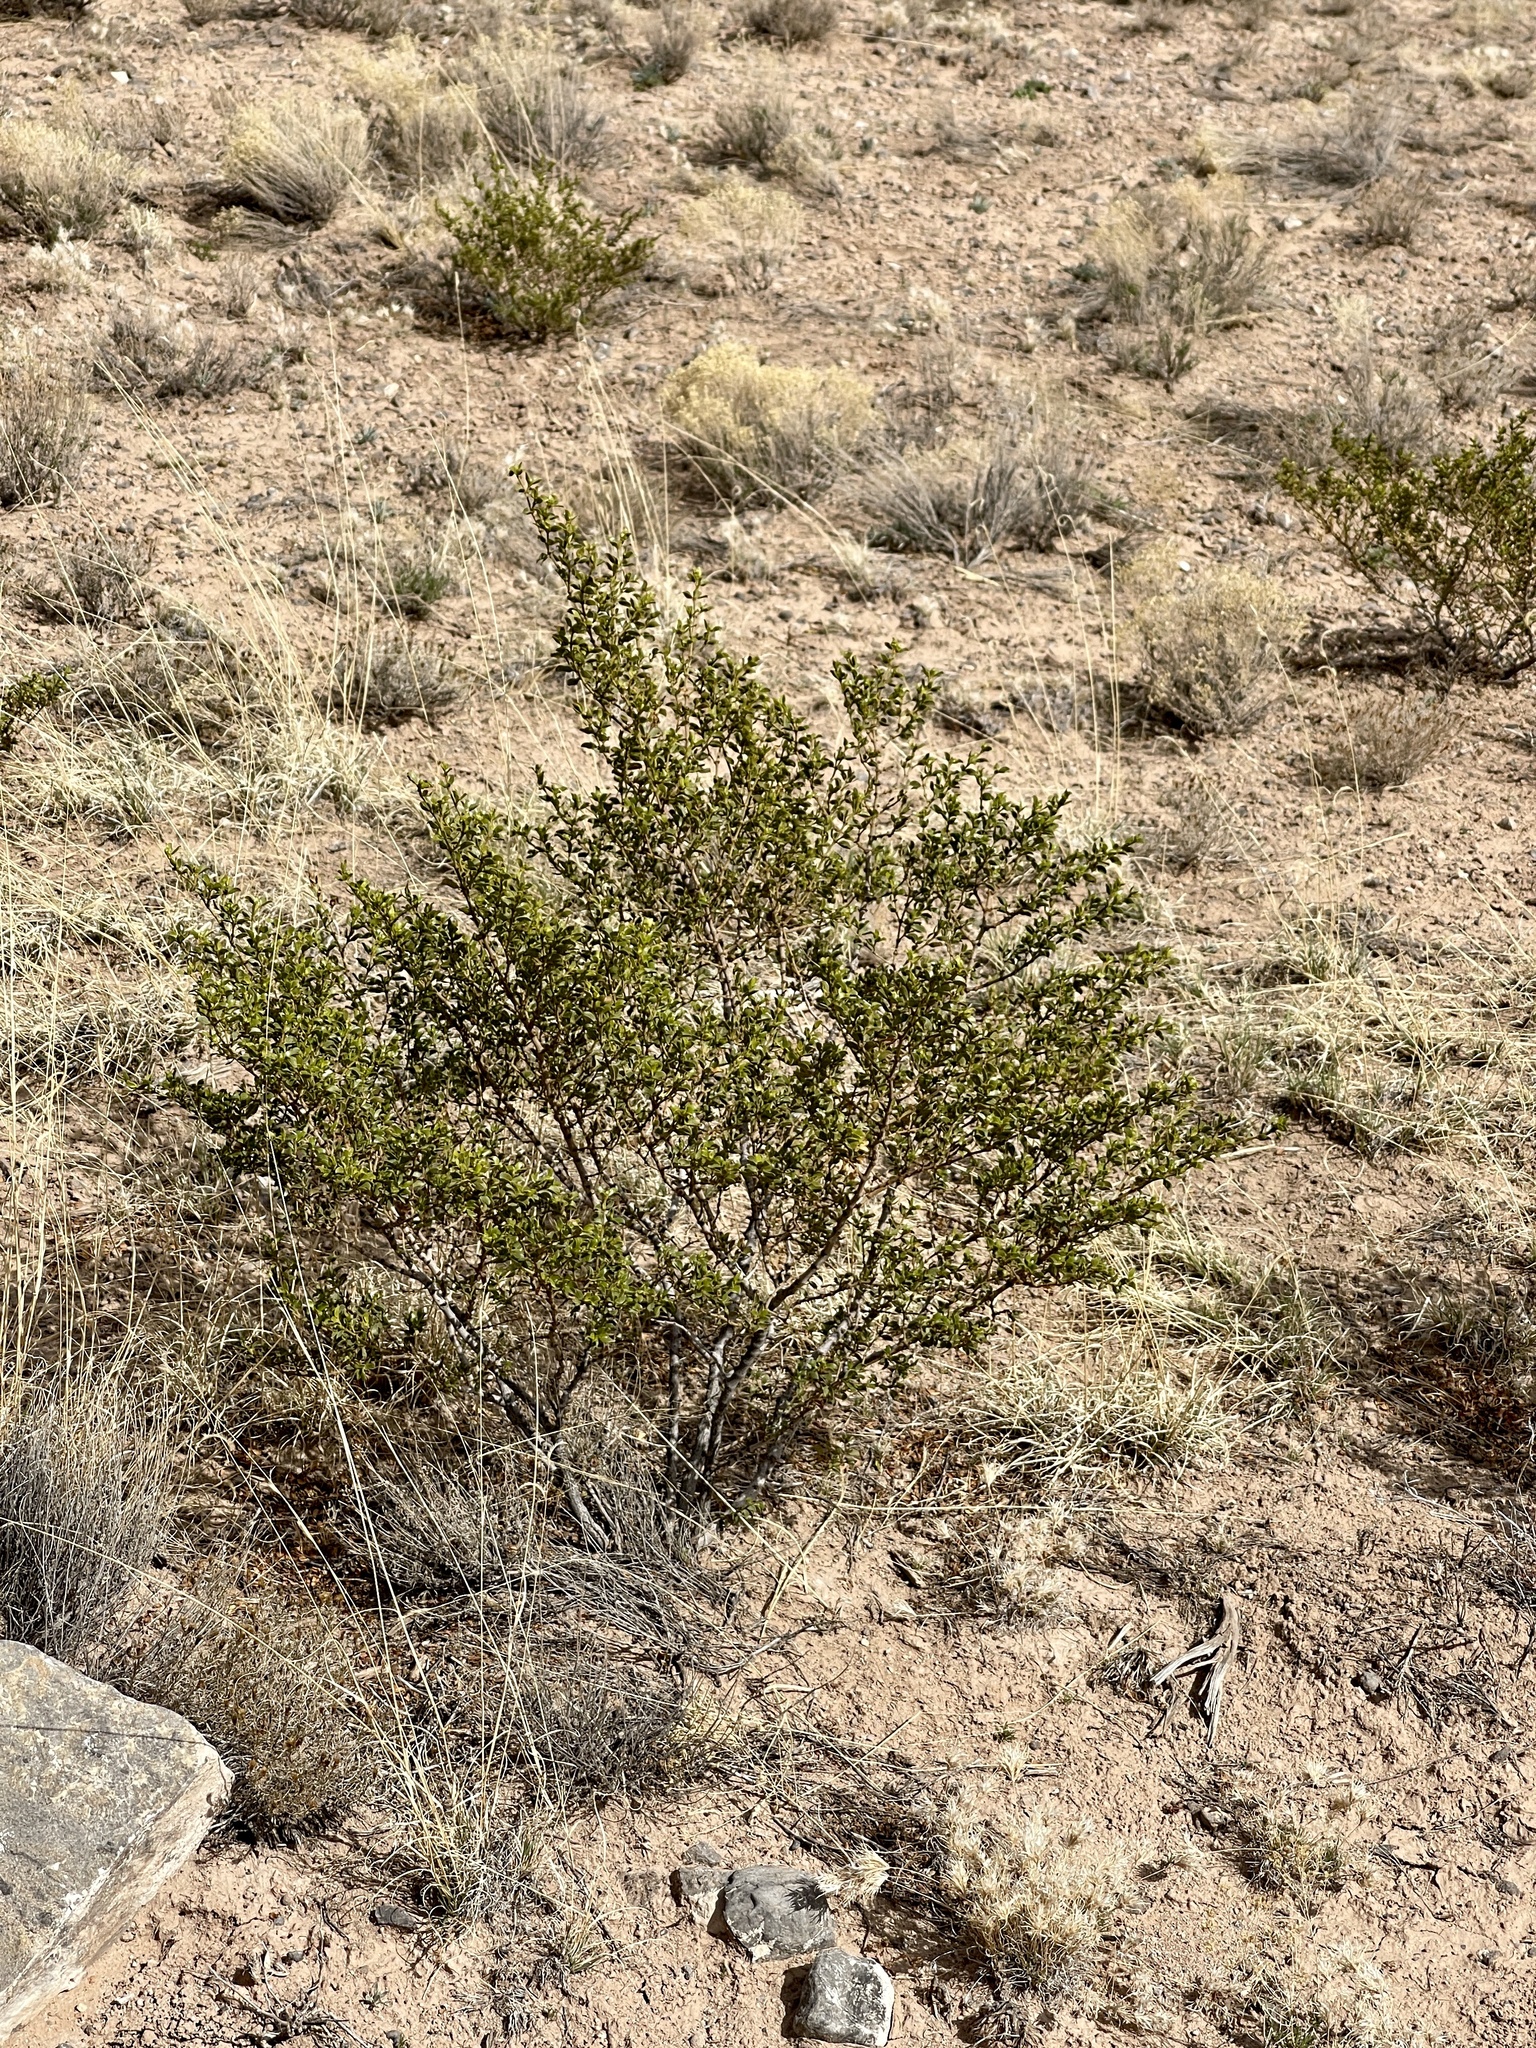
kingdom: Plantae
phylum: Tracheophyta
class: Magnoliopsida
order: Zygophyllales
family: Zygophyllaceae
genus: Larrea
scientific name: Larrea tridentata
